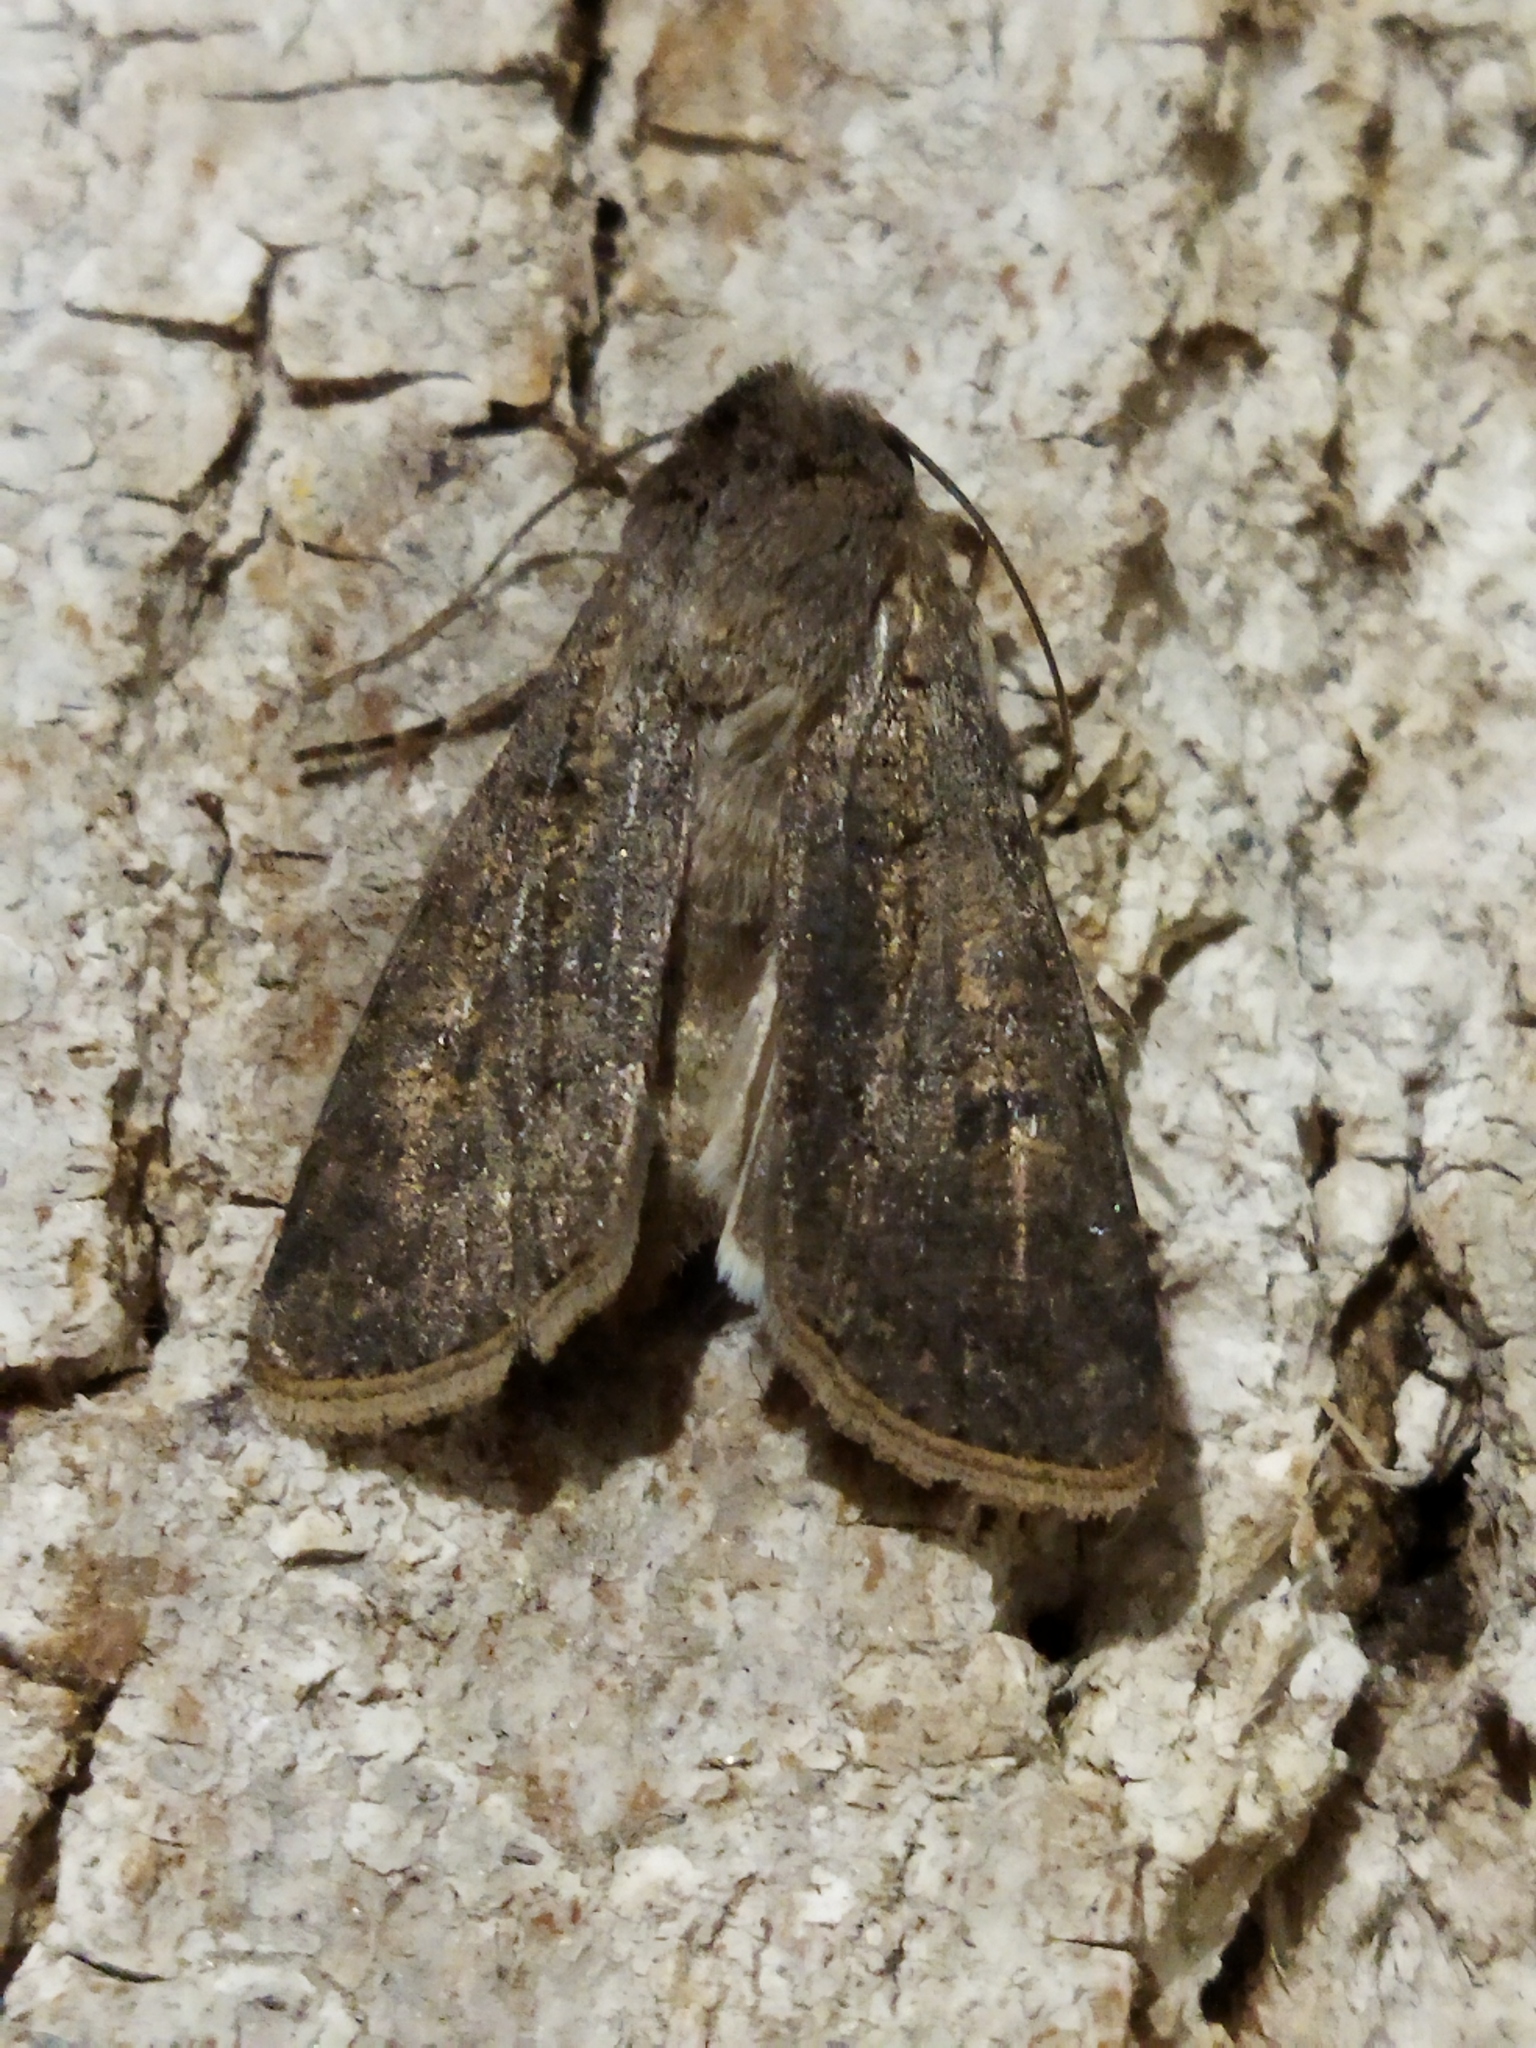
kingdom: Animalia
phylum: Arthropoda
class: Insecta
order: Lepidoptera
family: Noctuidae
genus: Agrotis
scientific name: Agrotis segetum
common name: Turnip moth
